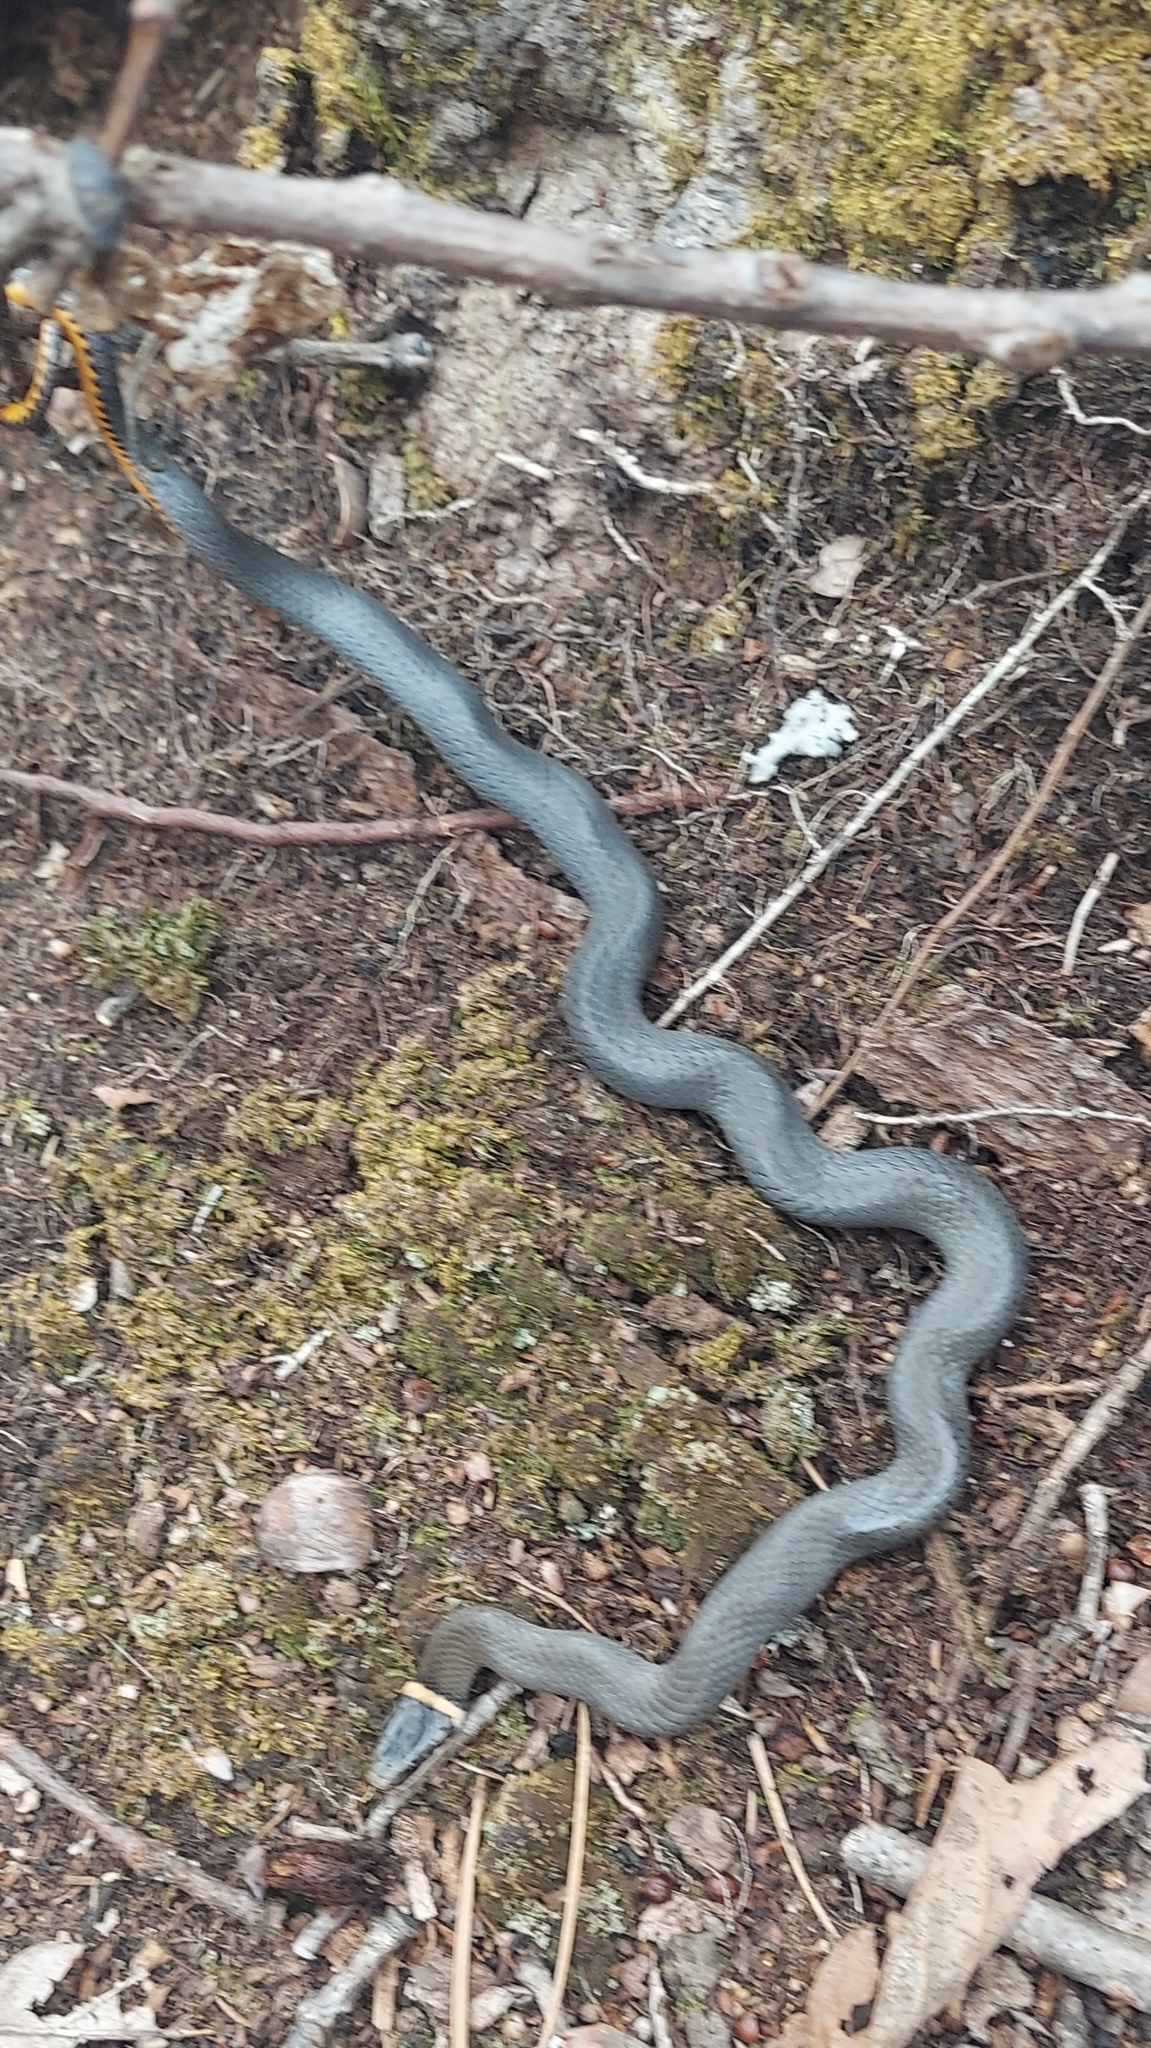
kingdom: Animalia
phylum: Chordata
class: Squamata
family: Colubridae
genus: Diadophis
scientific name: Diadophis punctatus
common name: Ringneck snake
